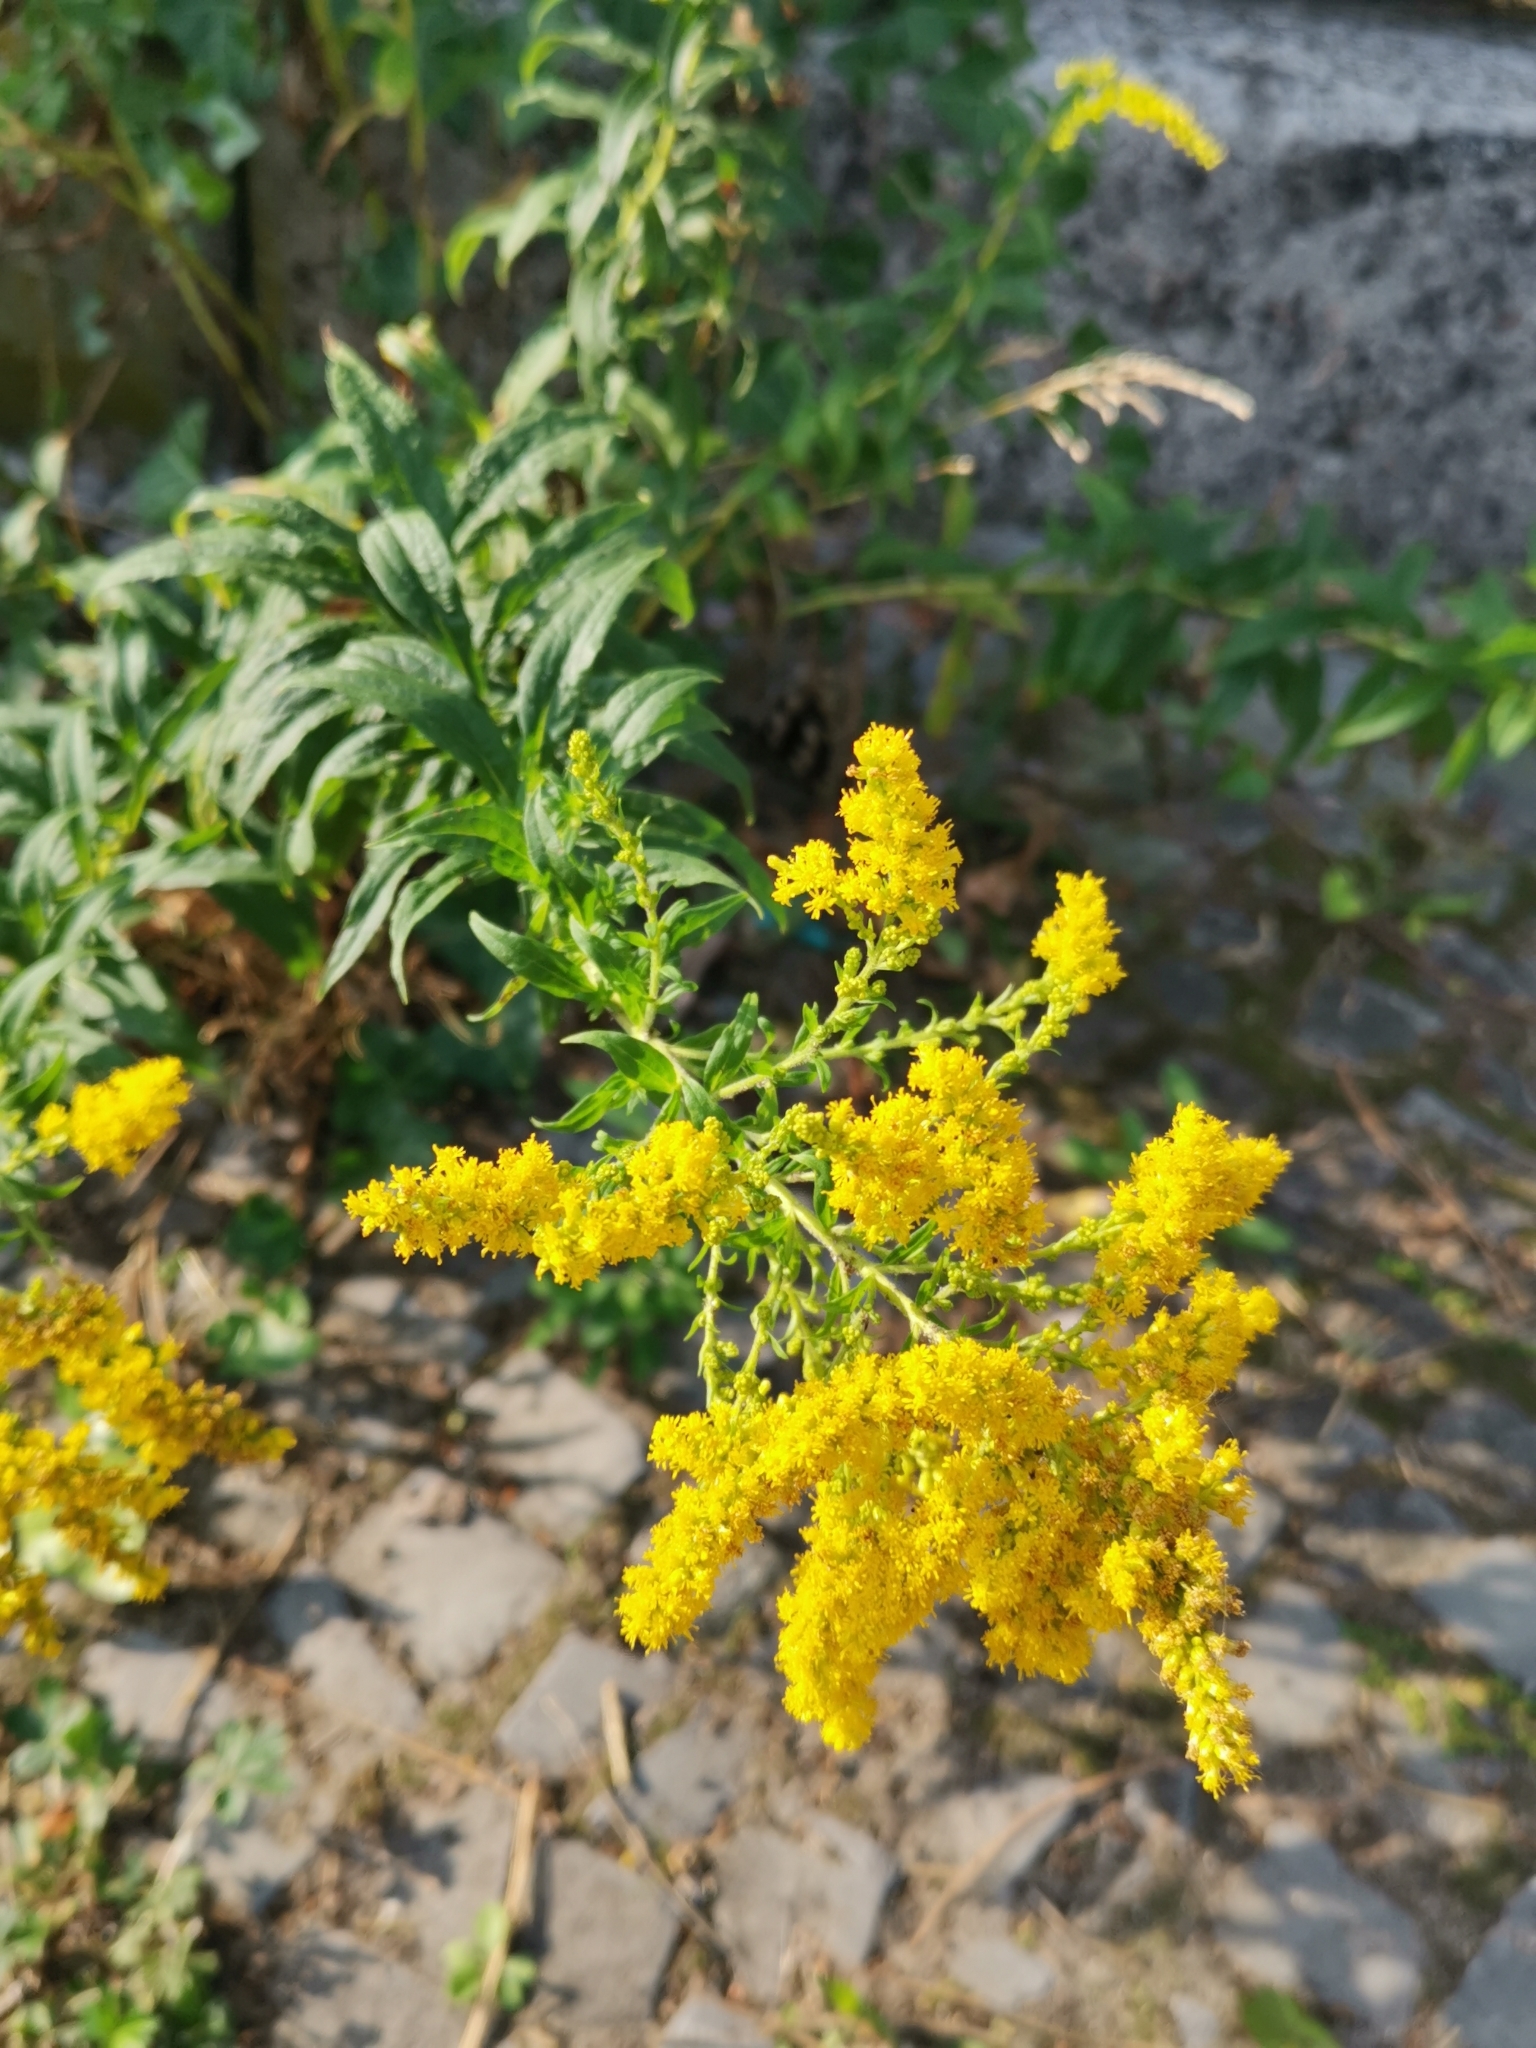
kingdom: Plantae
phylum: Tracheophyta
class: Magnoliopsida
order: Asterales
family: Asteraceae
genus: Solidago
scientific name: Solidago canadensis
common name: Canada goldenrod
